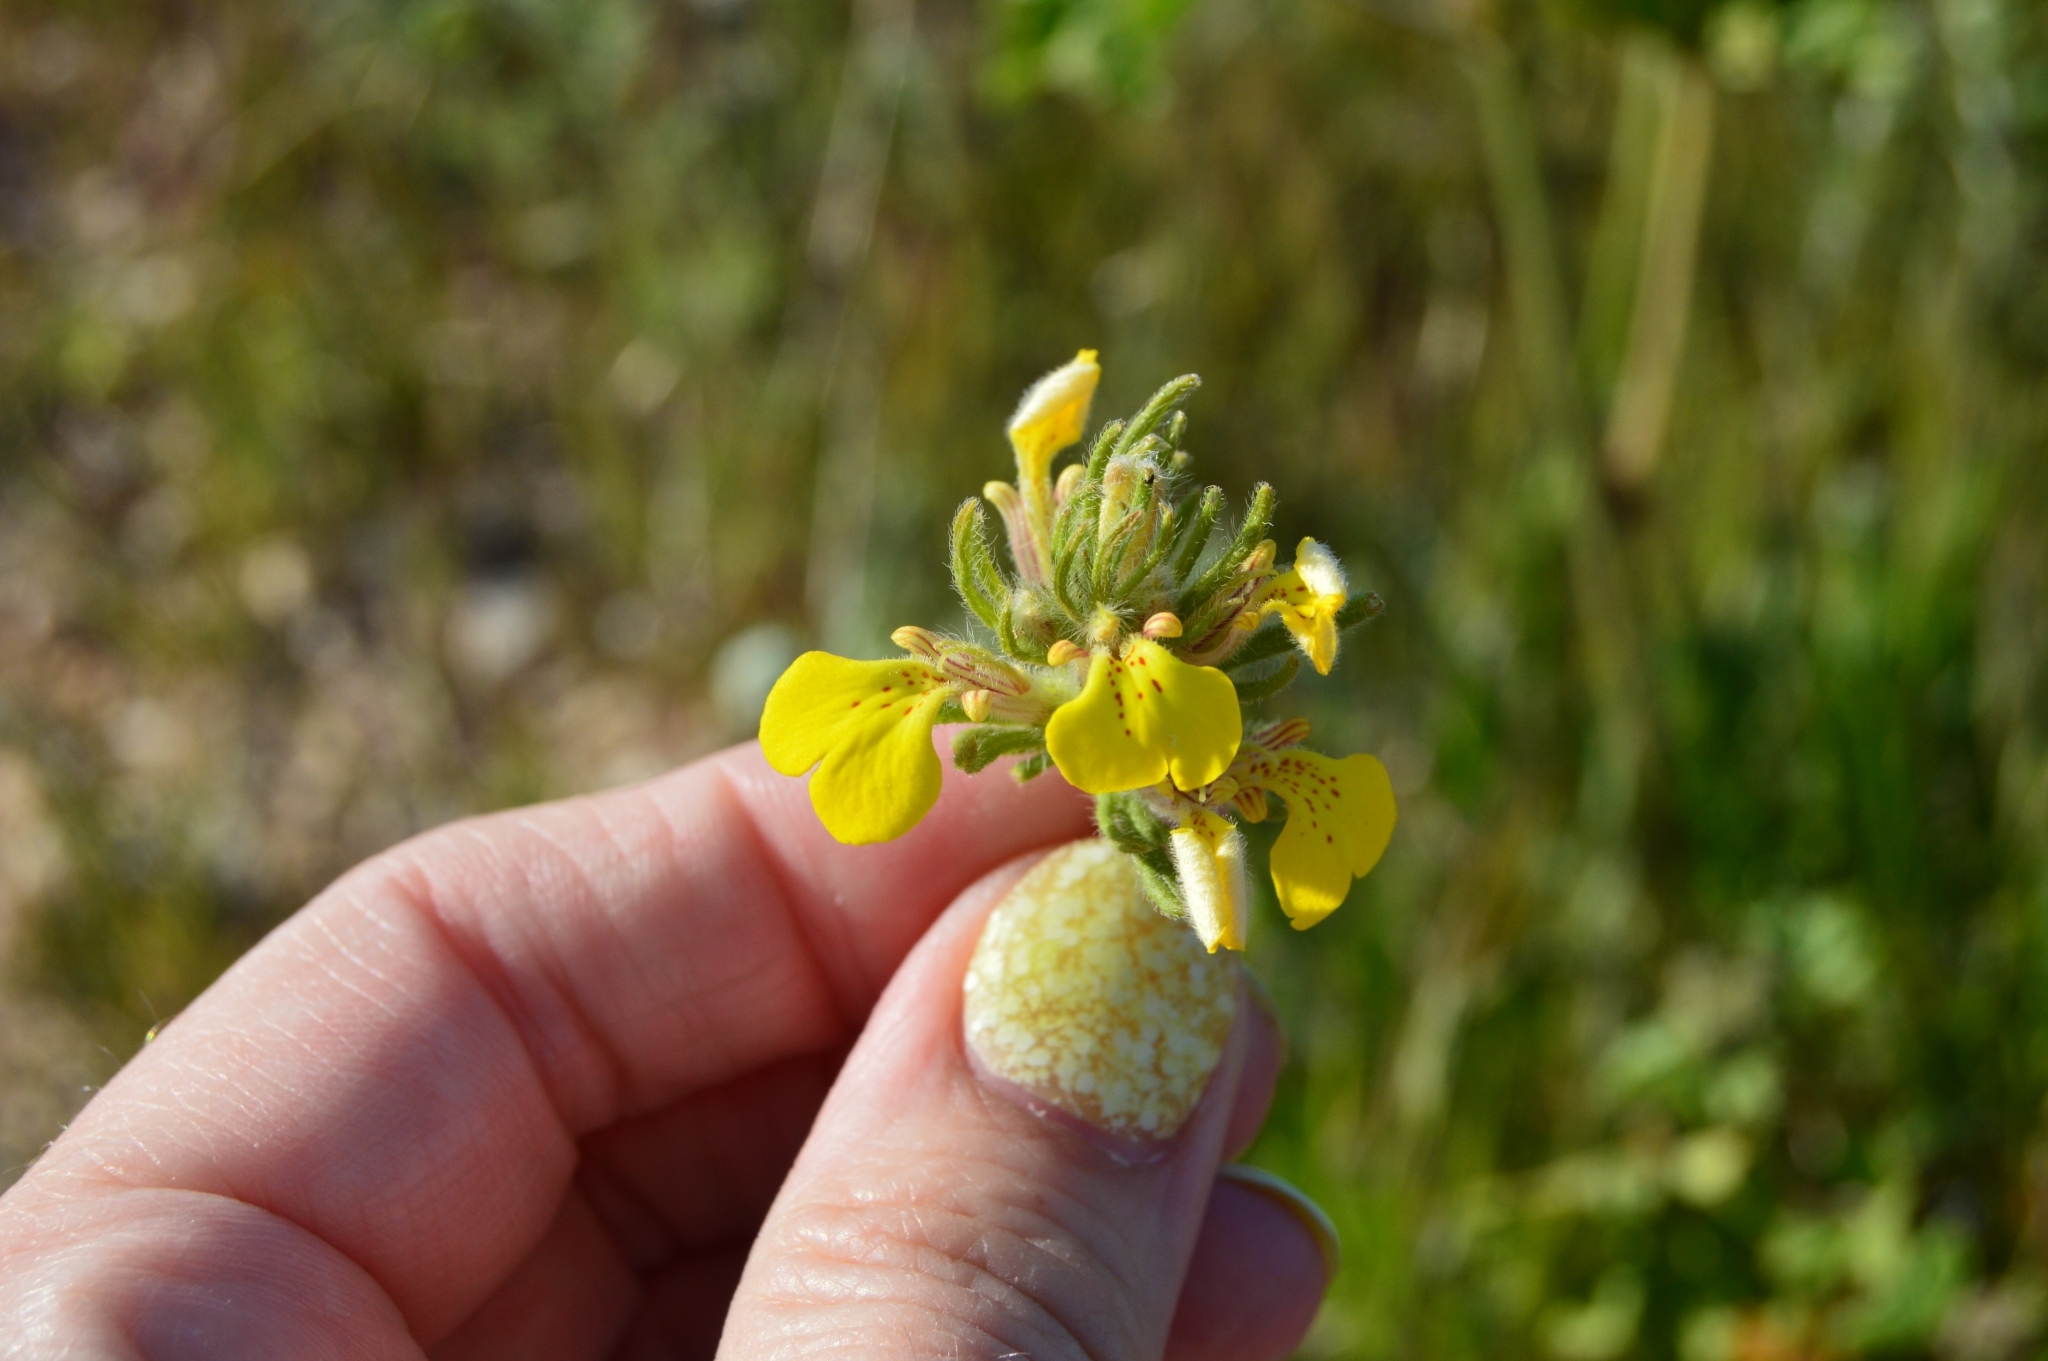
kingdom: Plantae
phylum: Tracheophyta
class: Magnoliopsida
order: Lamiales
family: Lamiaceae
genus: Ajuga
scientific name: Ajuga chamaepitys
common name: Ground-pine
